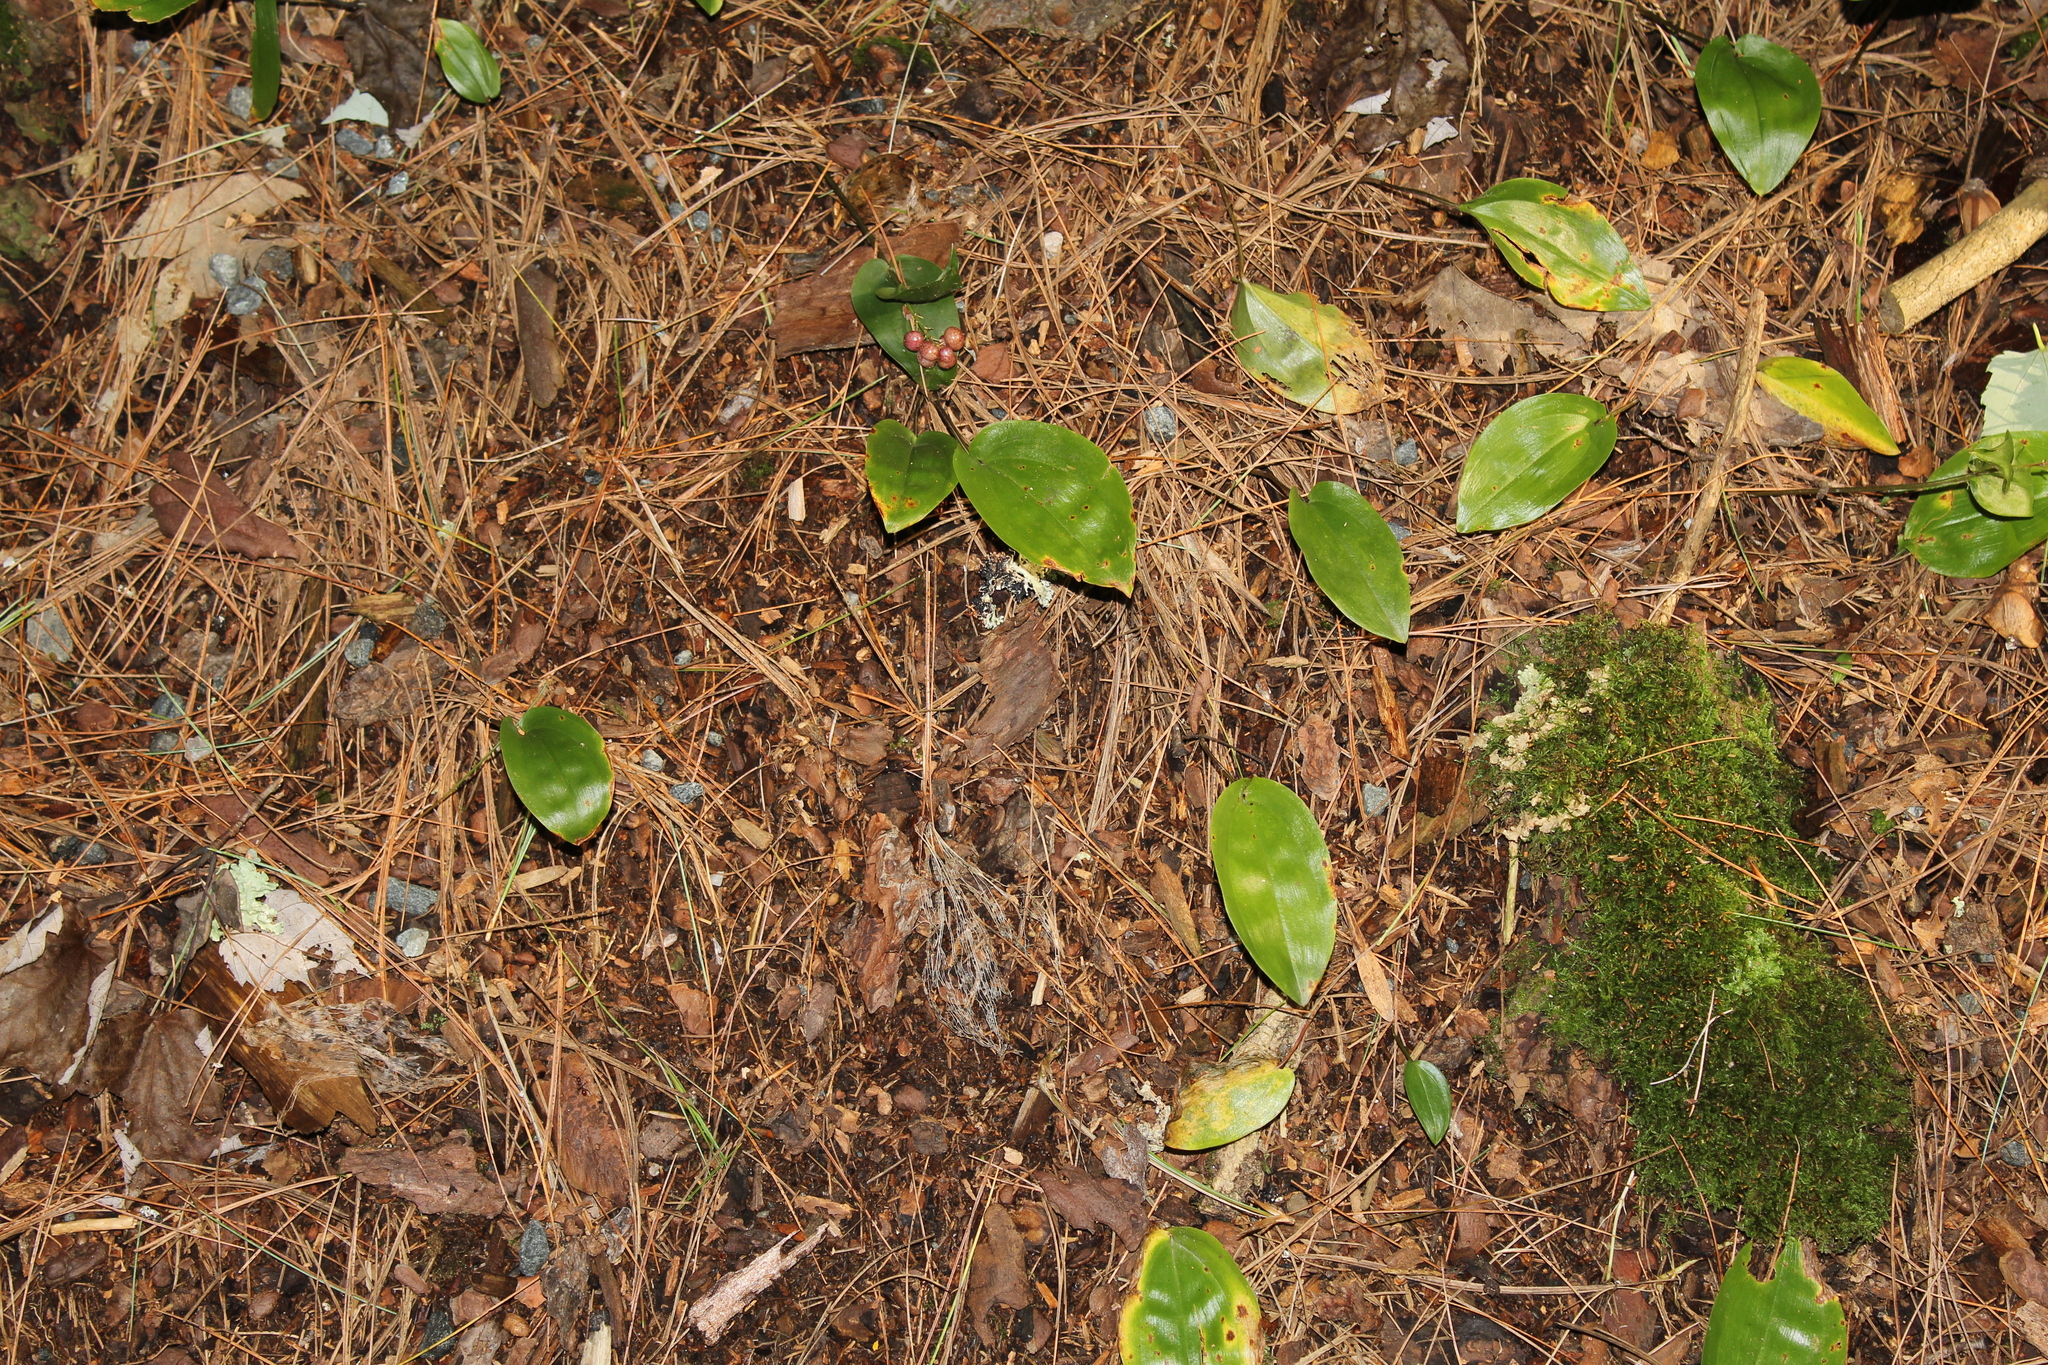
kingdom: Plantae
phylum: Tracheophyta
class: Liliopsida
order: Asparagales
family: Asparagaceae
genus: Maianthemum
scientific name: Maianthemum canadense
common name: False lily-of-the-valley
